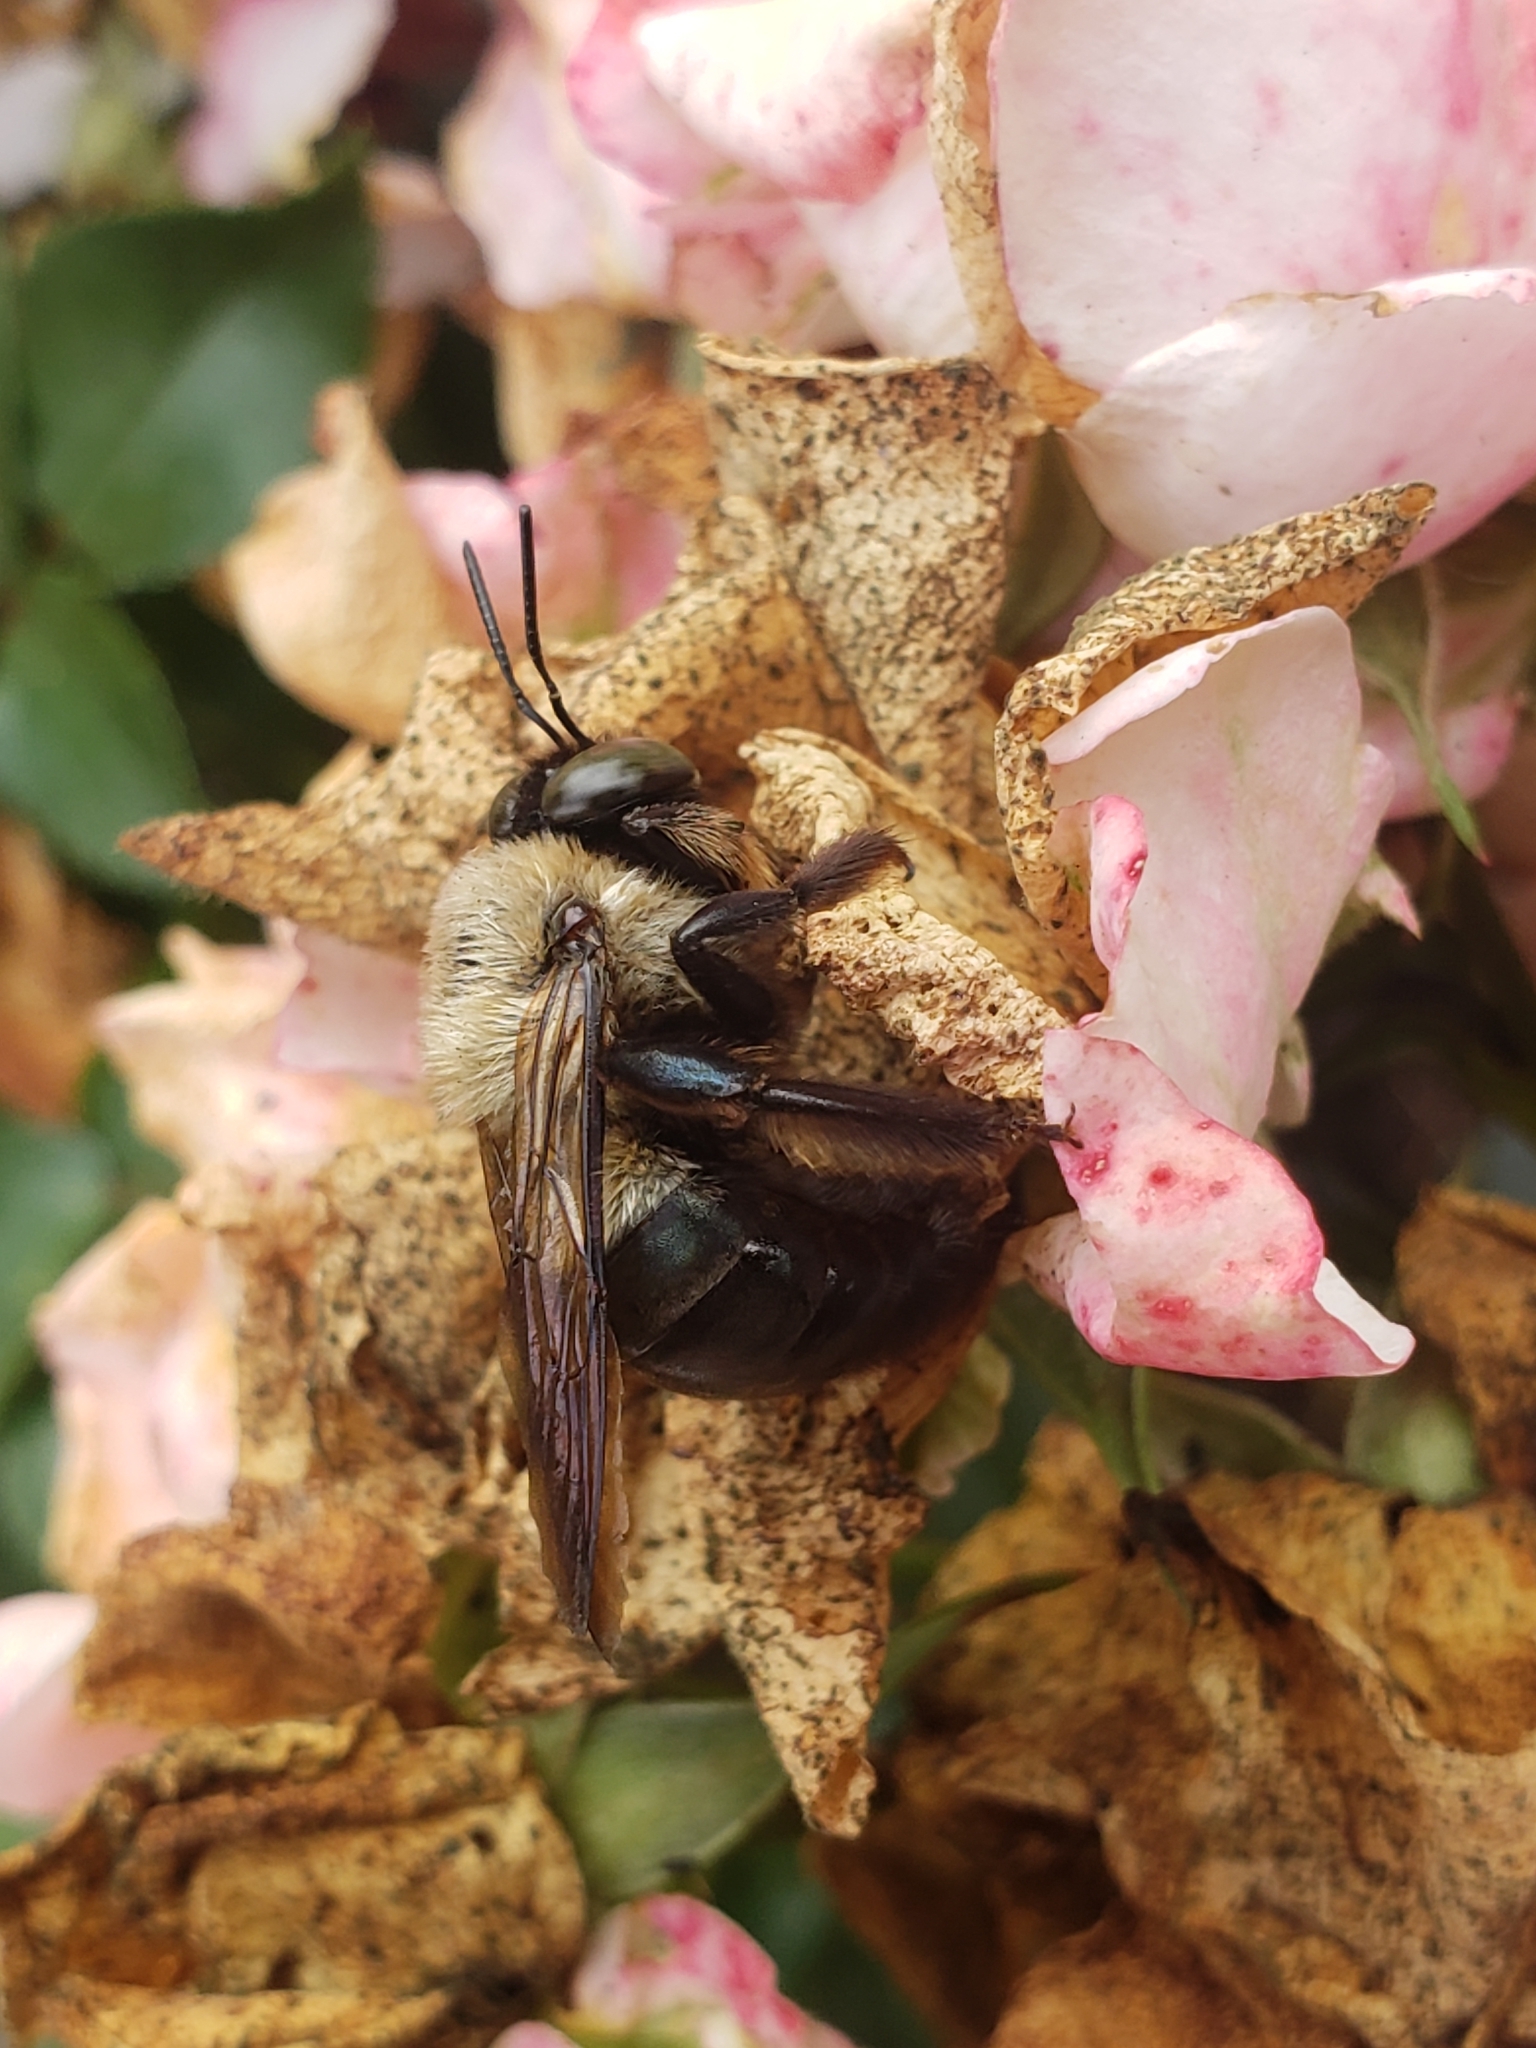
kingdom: Animalia
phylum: Arthropoda
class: Insecta
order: Hymenoptera
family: Apidae
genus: Xylocopa
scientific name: Xylocopa virginica
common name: Carpenter bee
